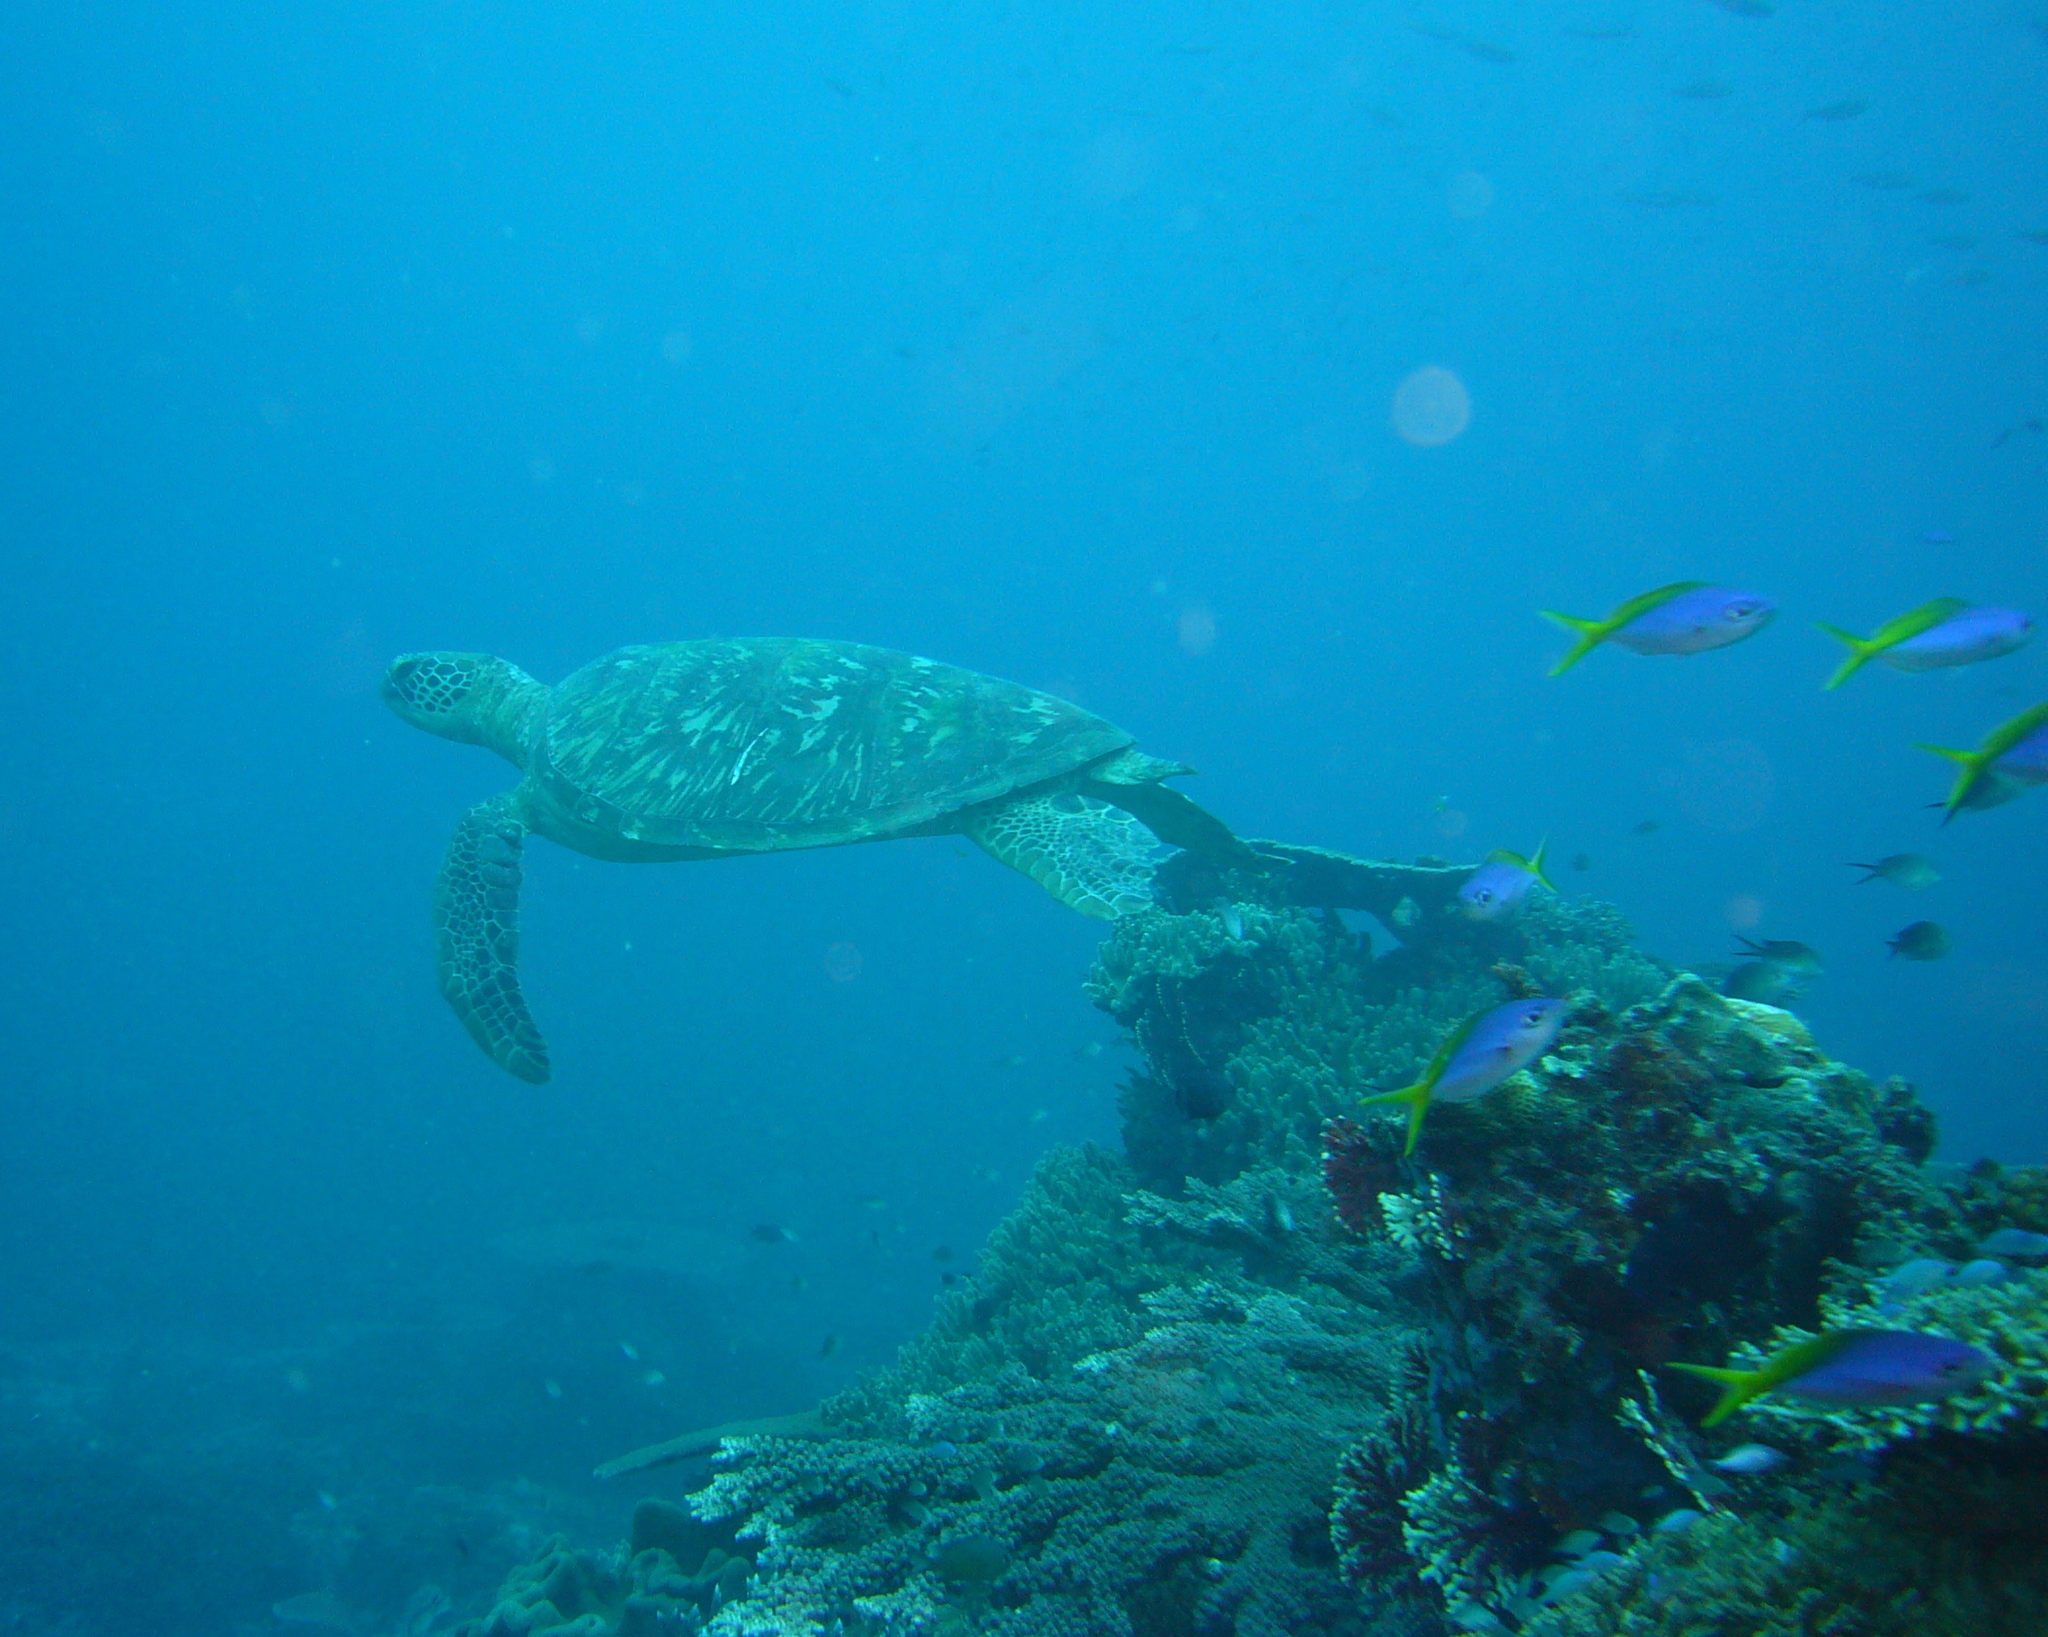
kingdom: Animalia
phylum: Chordata
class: Testudines
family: Cheloniidae
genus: Chelonia
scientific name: Chelonia mydas
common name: Green turtle
